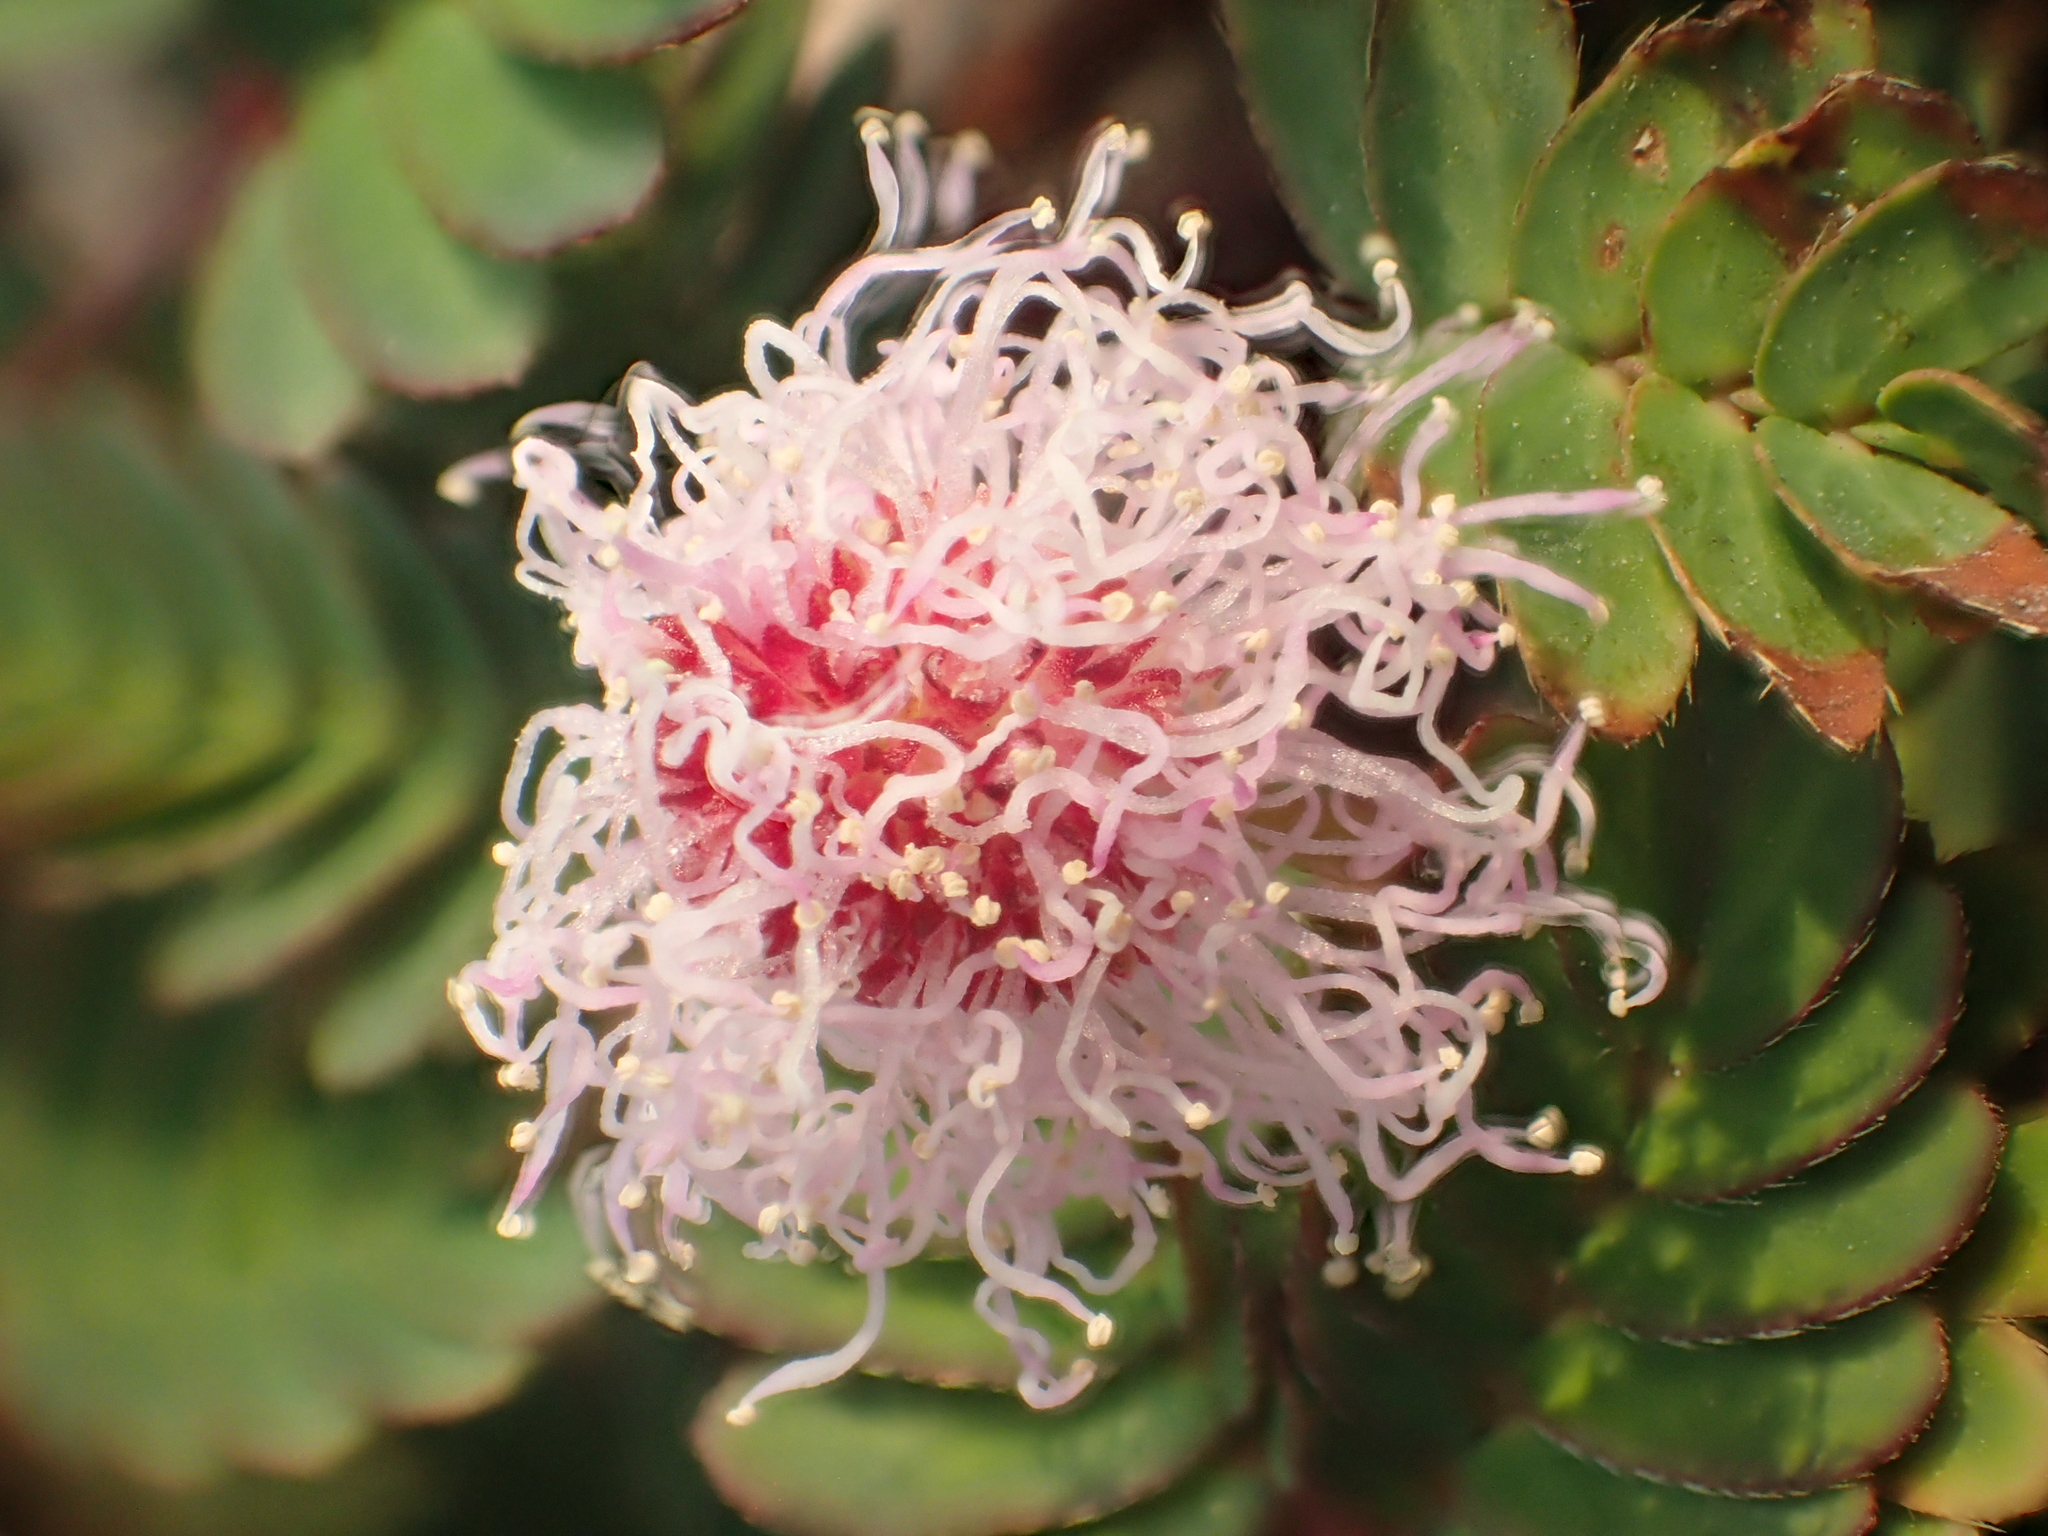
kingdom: Plantae
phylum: Tracheophyta
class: Magnoliopsida
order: Fabales
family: Fabaceae
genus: Mimosa
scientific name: Mimosa pudica
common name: Sensitive plant
